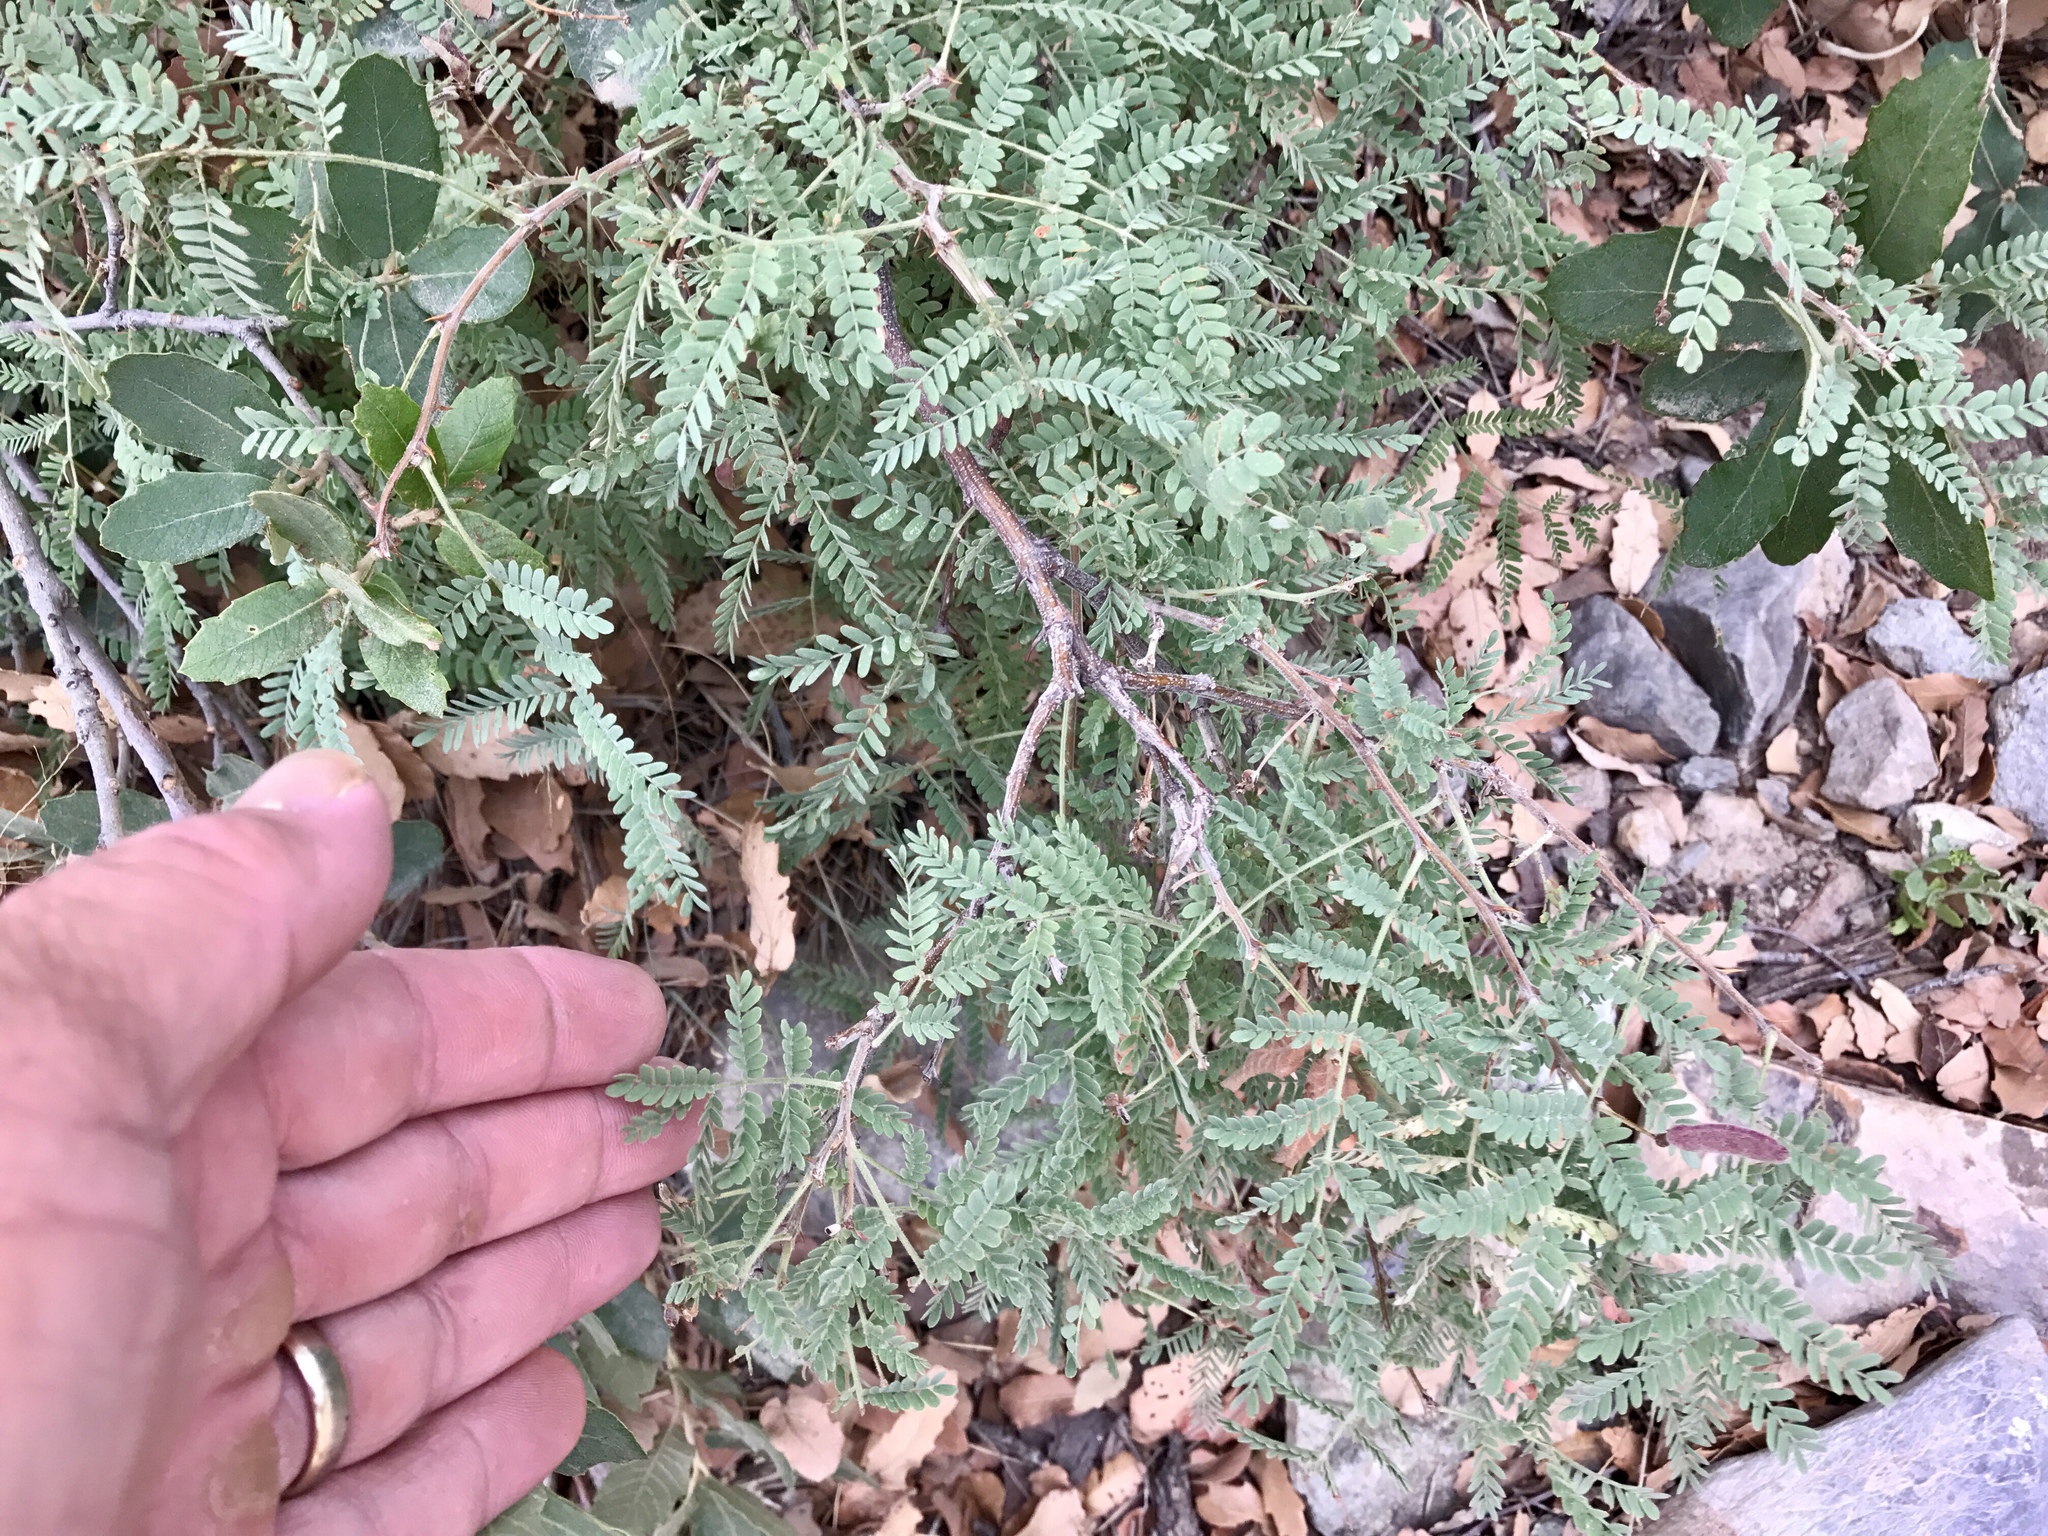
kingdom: Plantae
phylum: Tracheophyta
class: Magnoliopsida
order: Fabales
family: Fabaceae
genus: Mimosa
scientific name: Mimosa grahamii
